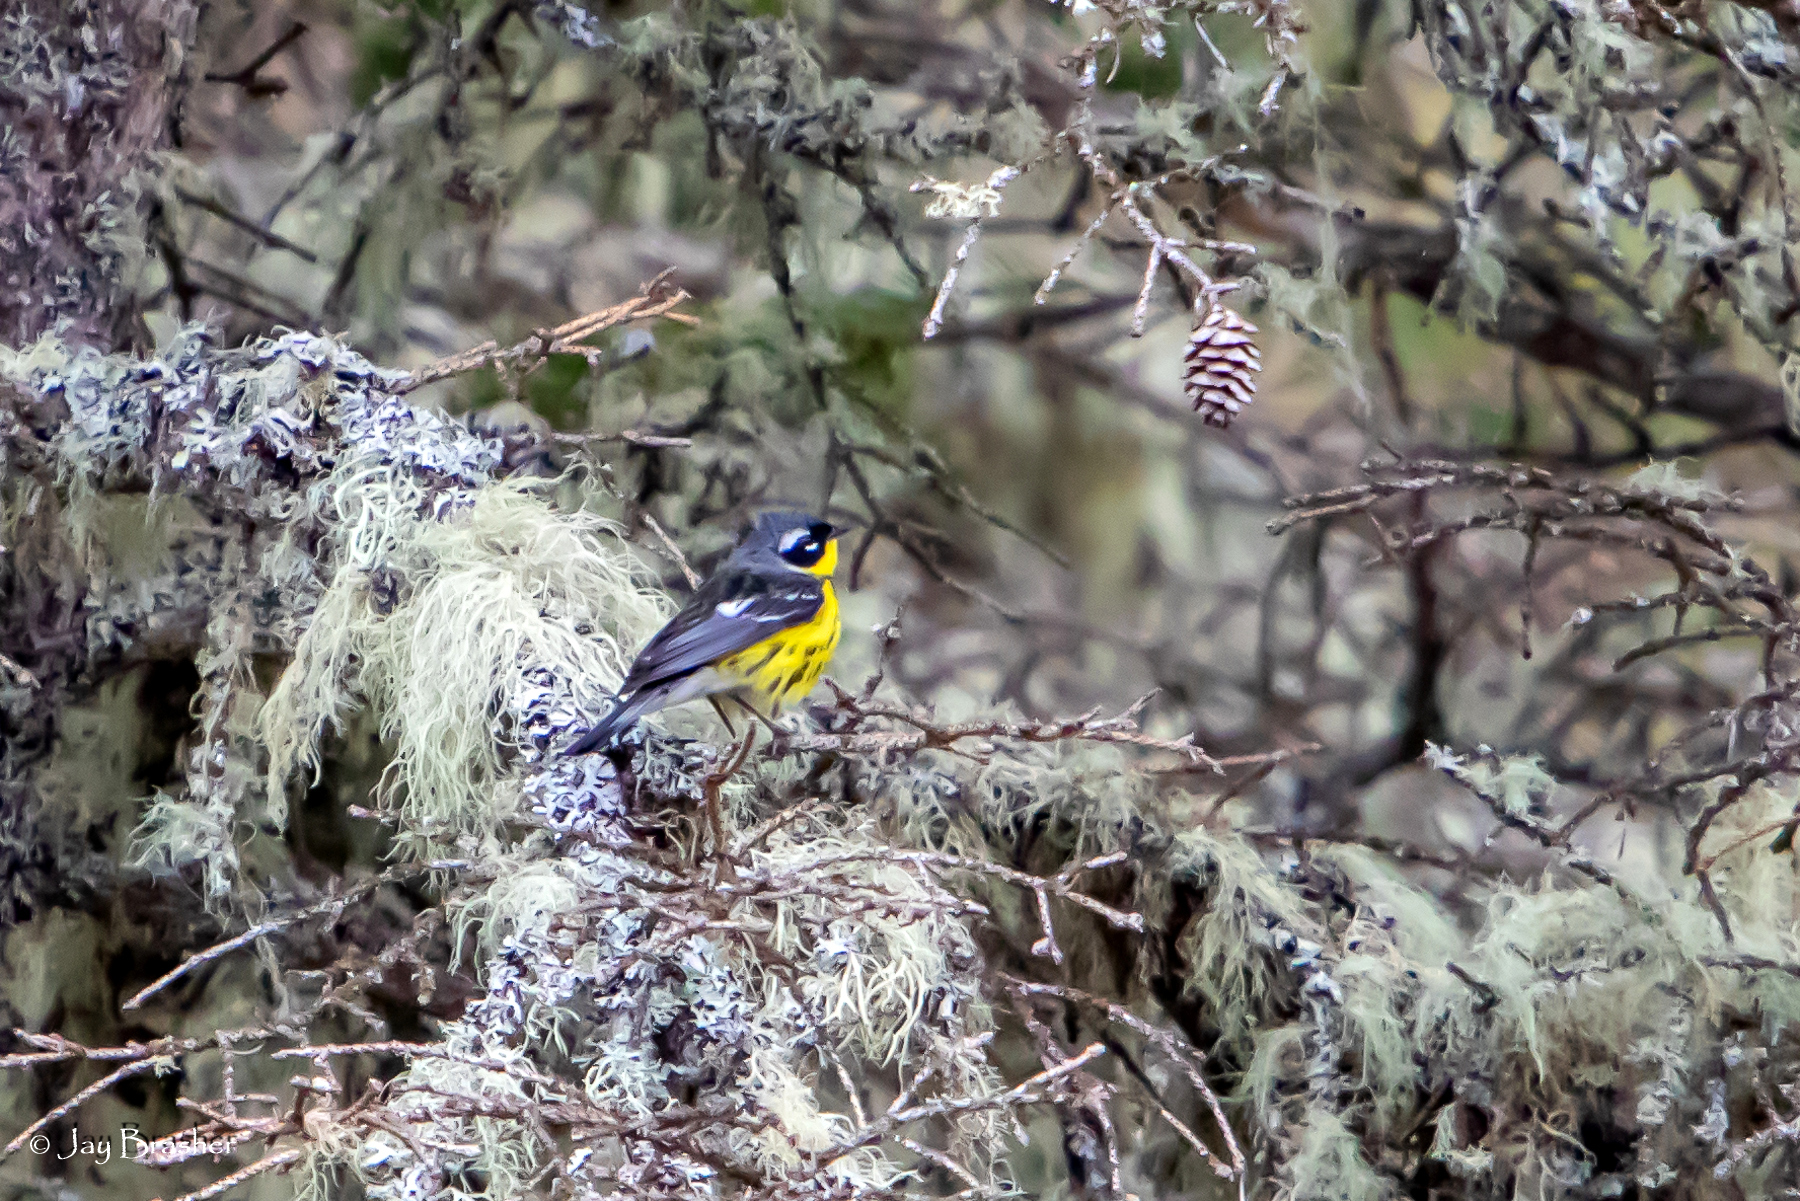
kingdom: Animalia
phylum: Chordata
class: Aves
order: Passeriformes
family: Parulidae
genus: Setophaga
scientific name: Setophaga magnolia
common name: Magnolia warbler
